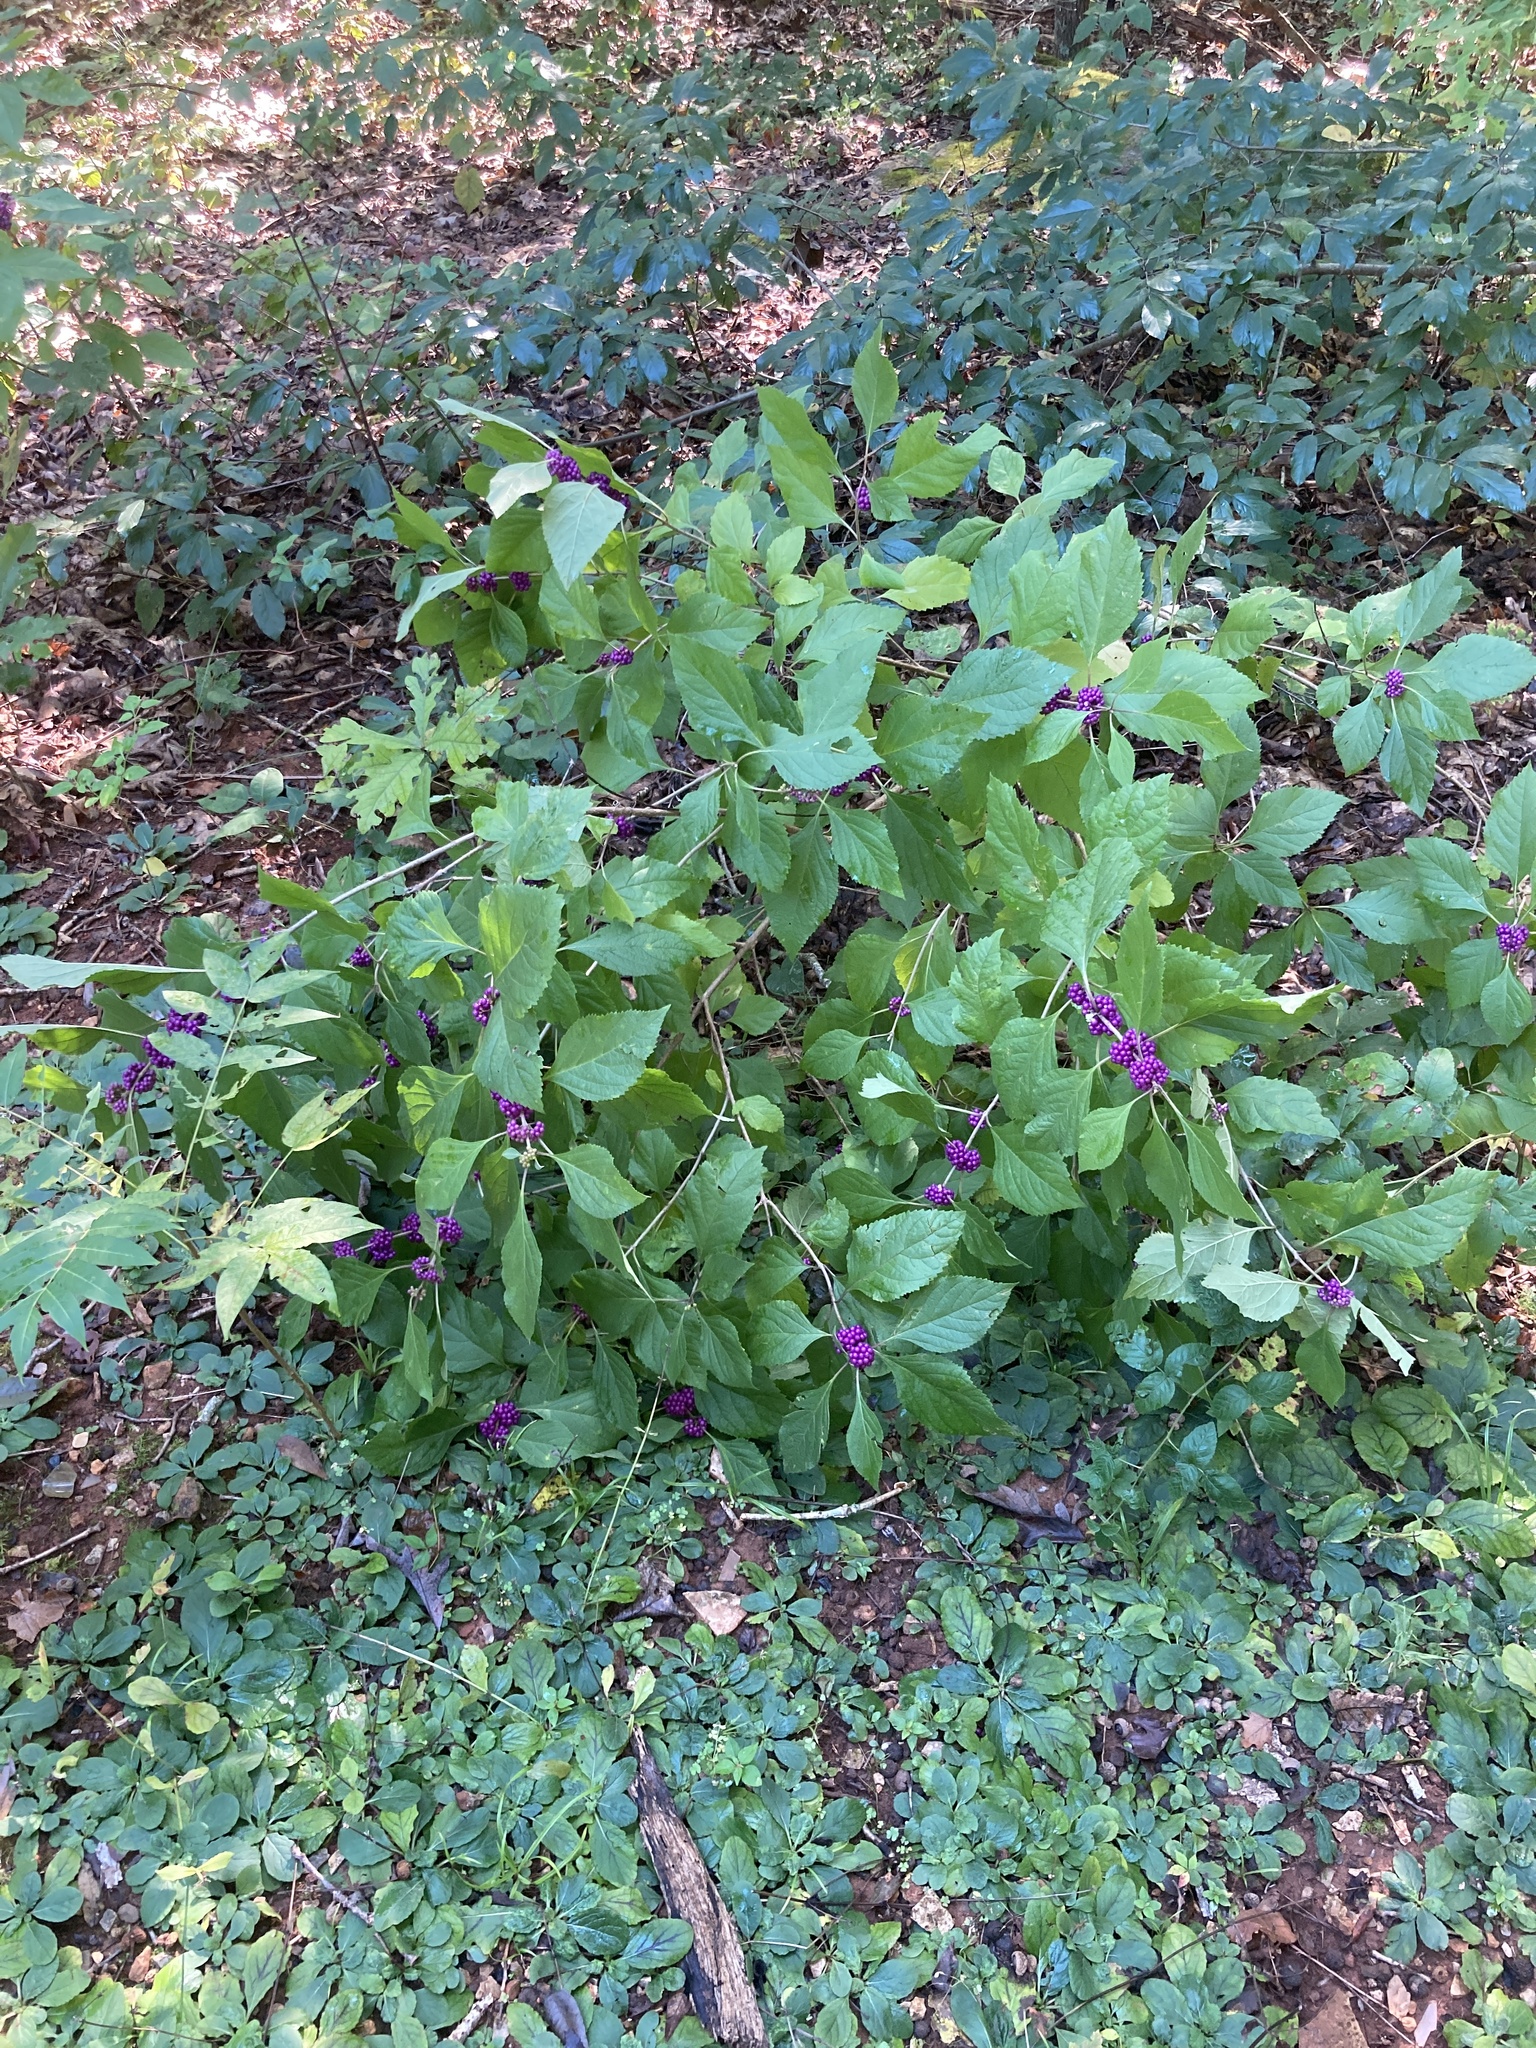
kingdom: Plantae
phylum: Tracheophyta
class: Magnoliopsida
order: Lamiales
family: Lamiaceae
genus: Callicarpa
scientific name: Callicarpa americana
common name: American beautyberry
